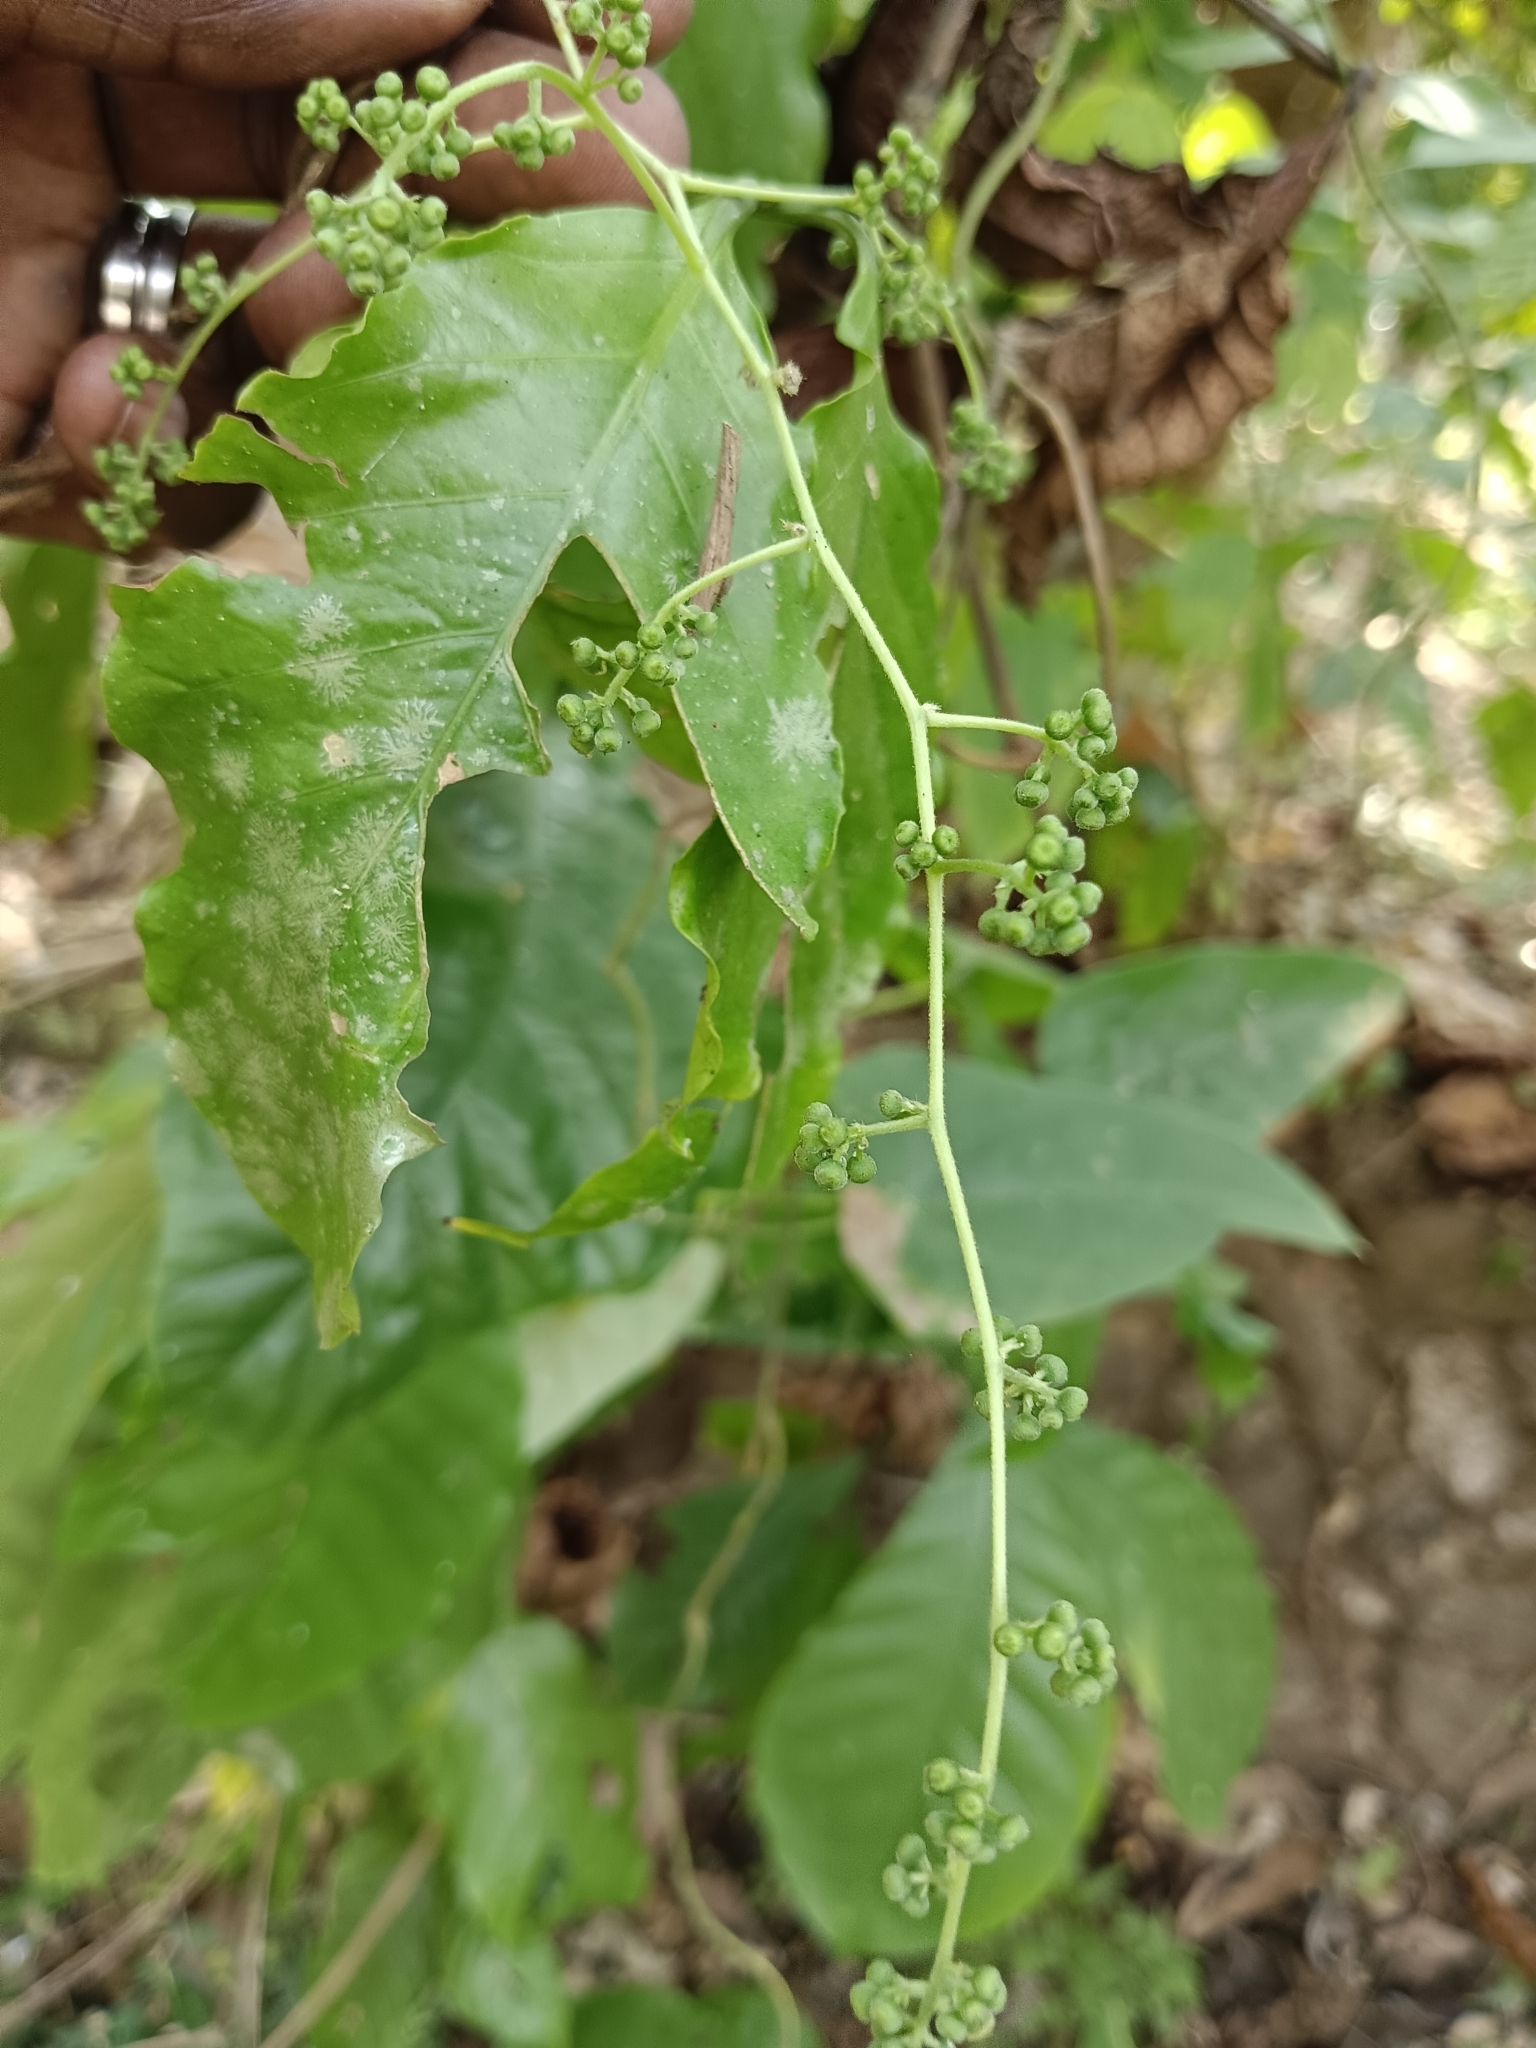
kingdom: Plantae
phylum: Tracheophyta
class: Magnoliopsida
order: Ranunculales
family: Menispermaceae
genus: Cyclea
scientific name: Cyclea peltata
